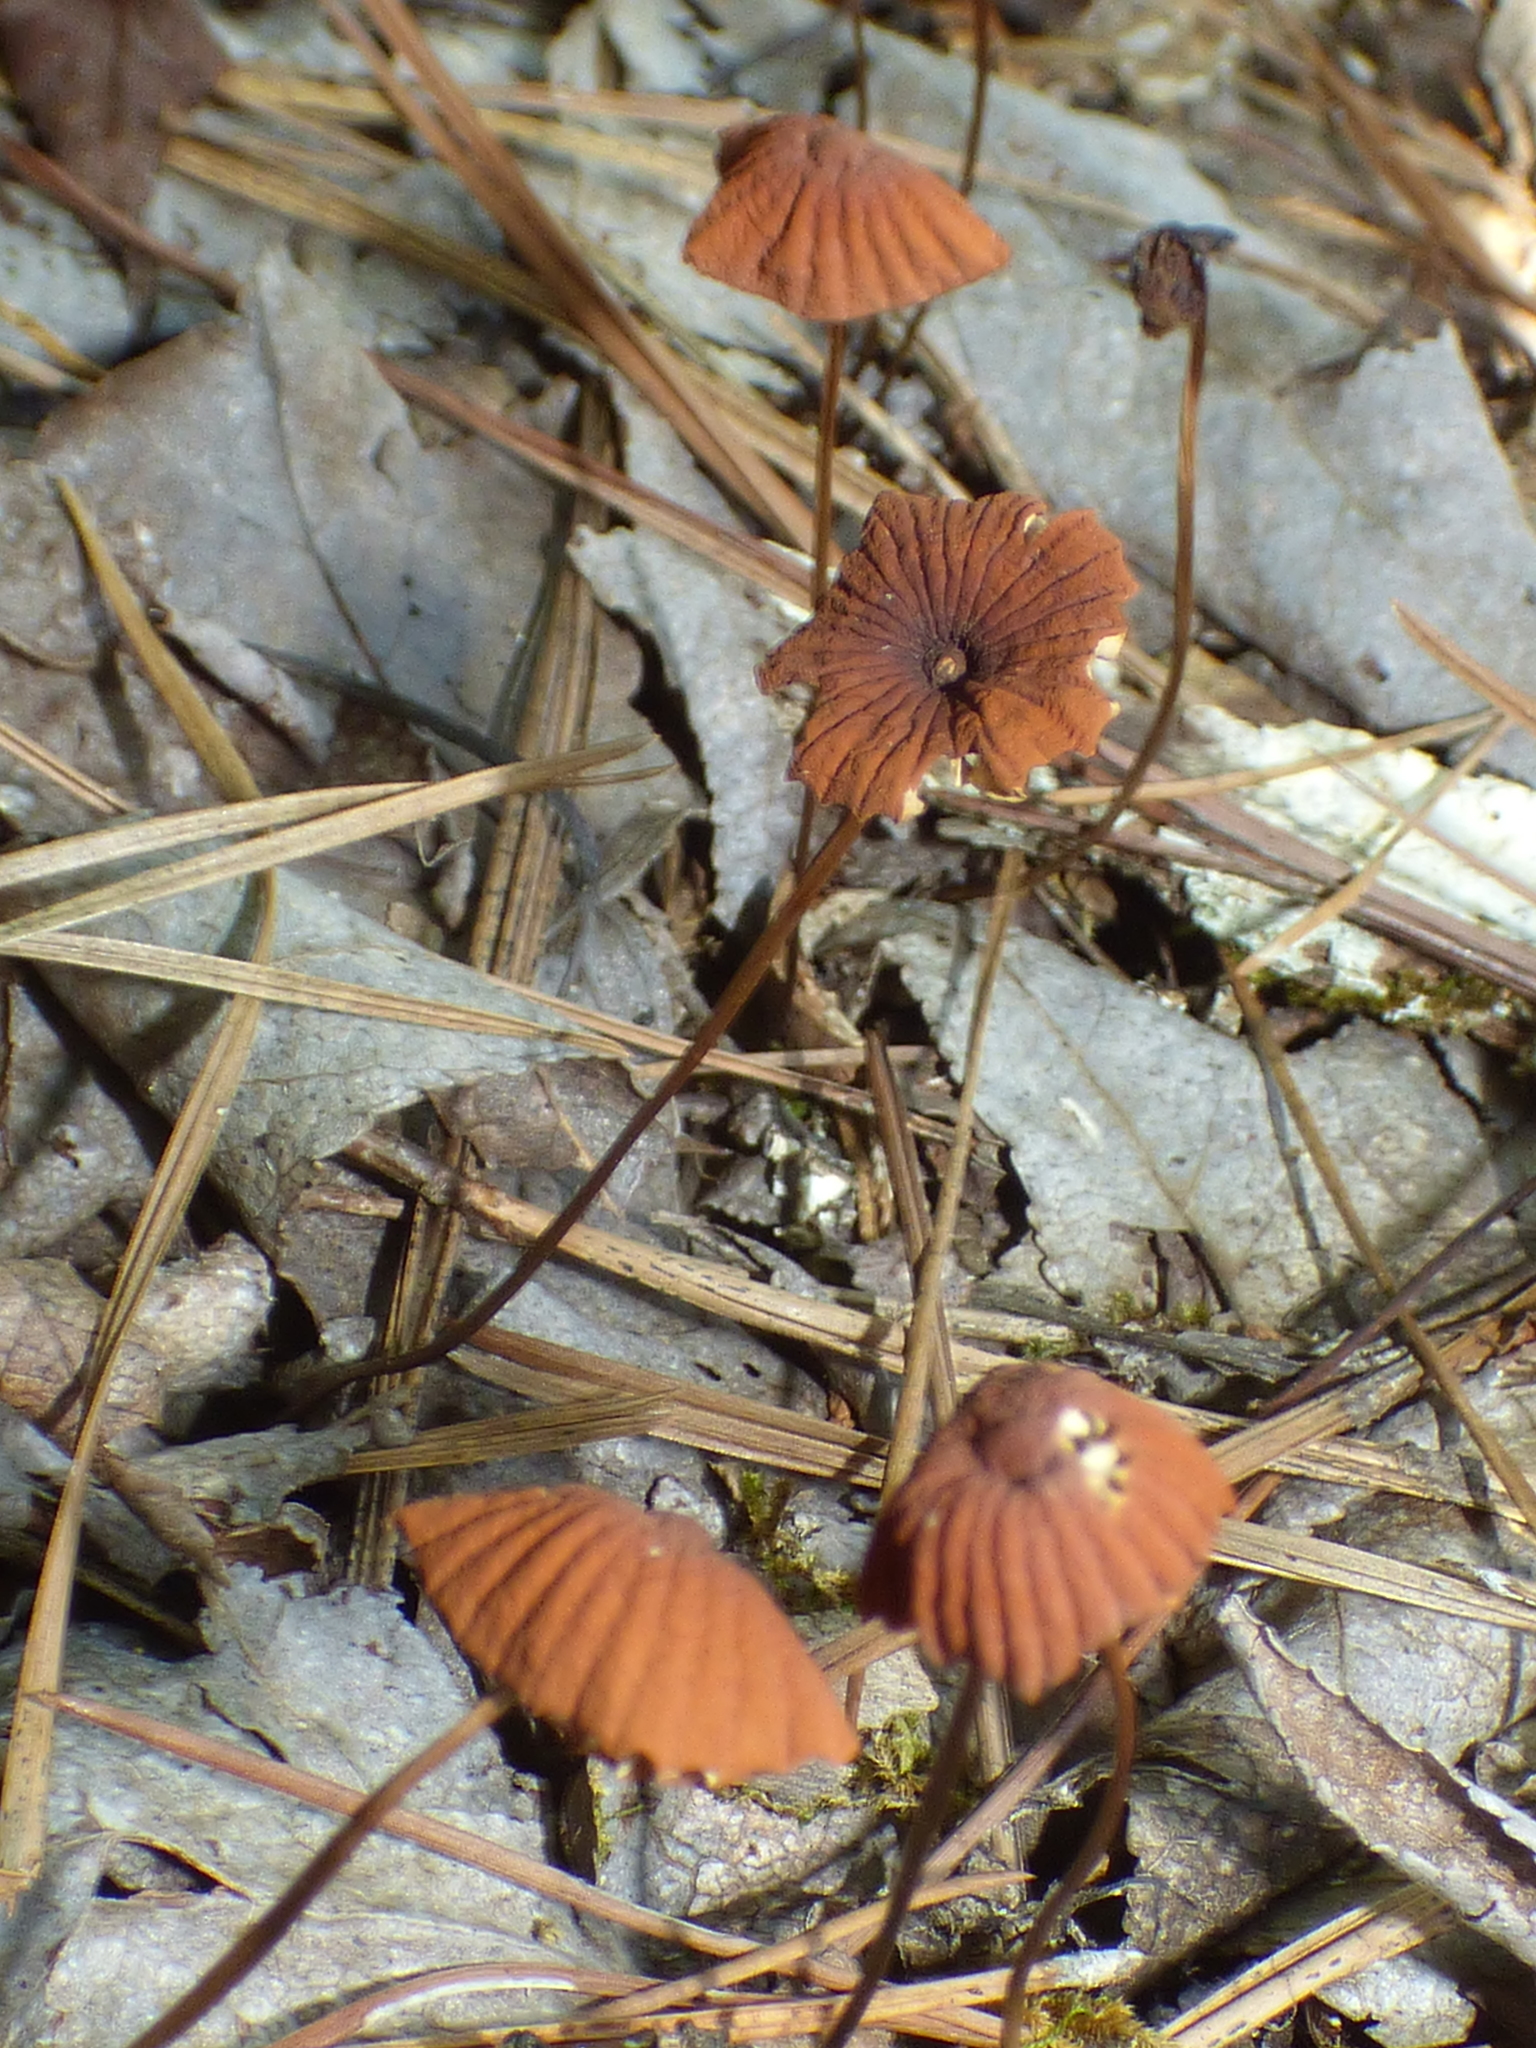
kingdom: Fungi
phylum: Basidiomycota
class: Agaricomycetes
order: Agaricales
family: Marasmiaceae
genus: Marasmius
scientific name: Marasmius siccus
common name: Orange pinwheel
